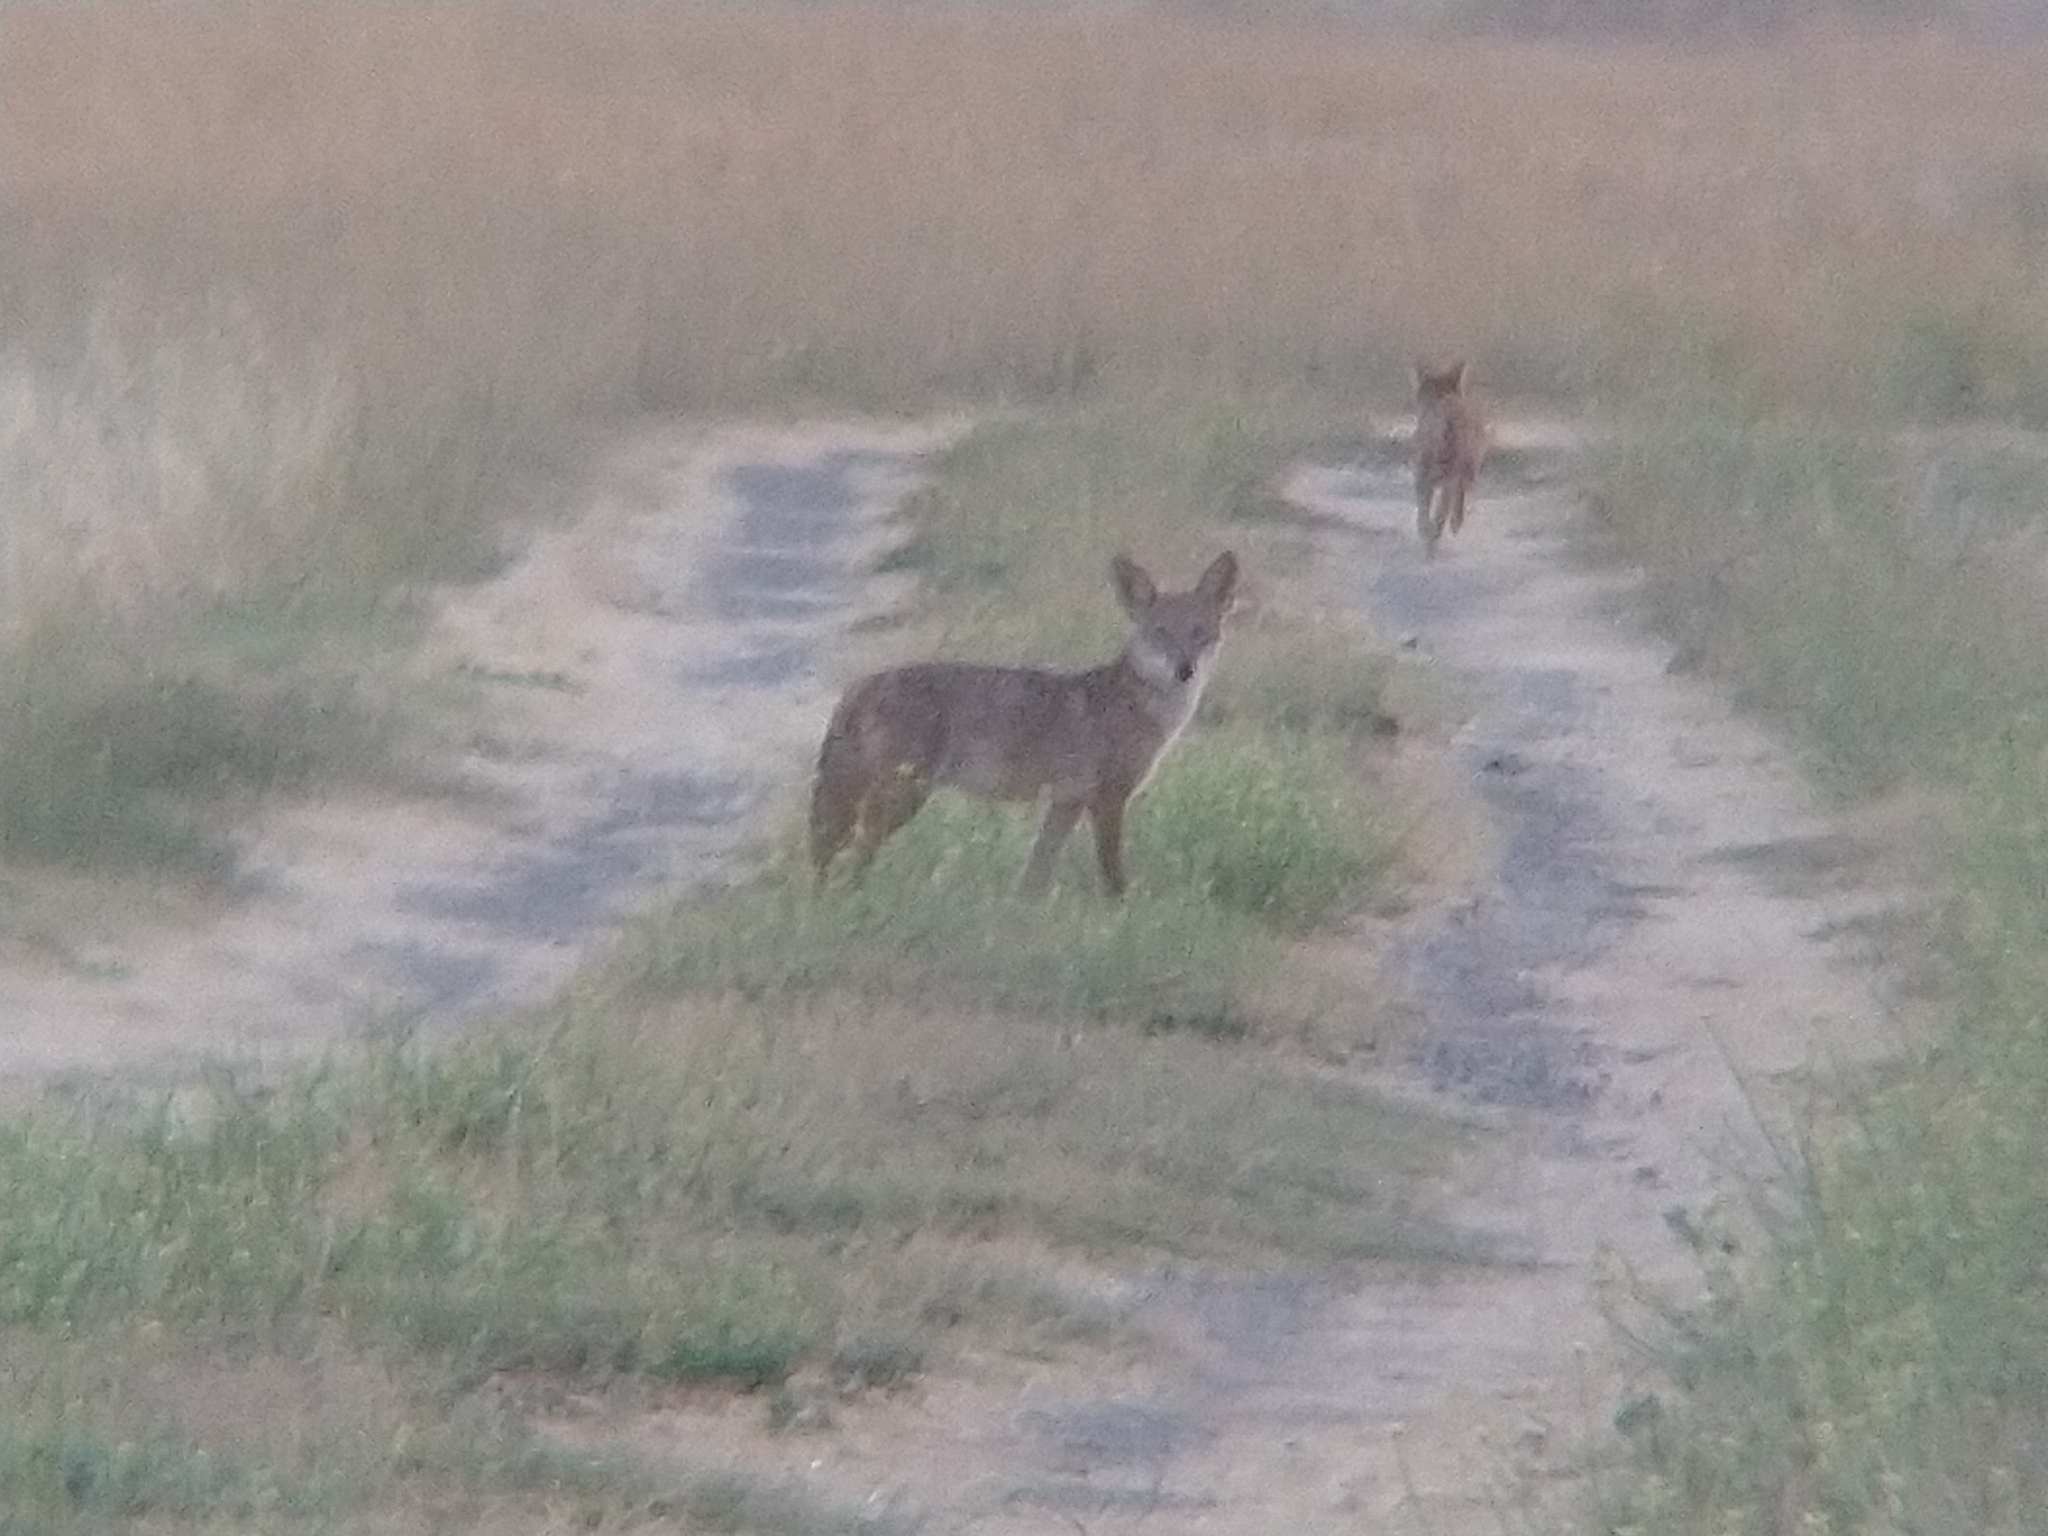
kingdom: Animalia
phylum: Chordata
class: Mammalia
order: Carnivora
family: Canidae
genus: Canis
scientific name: Canis latrans
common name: Coyote
